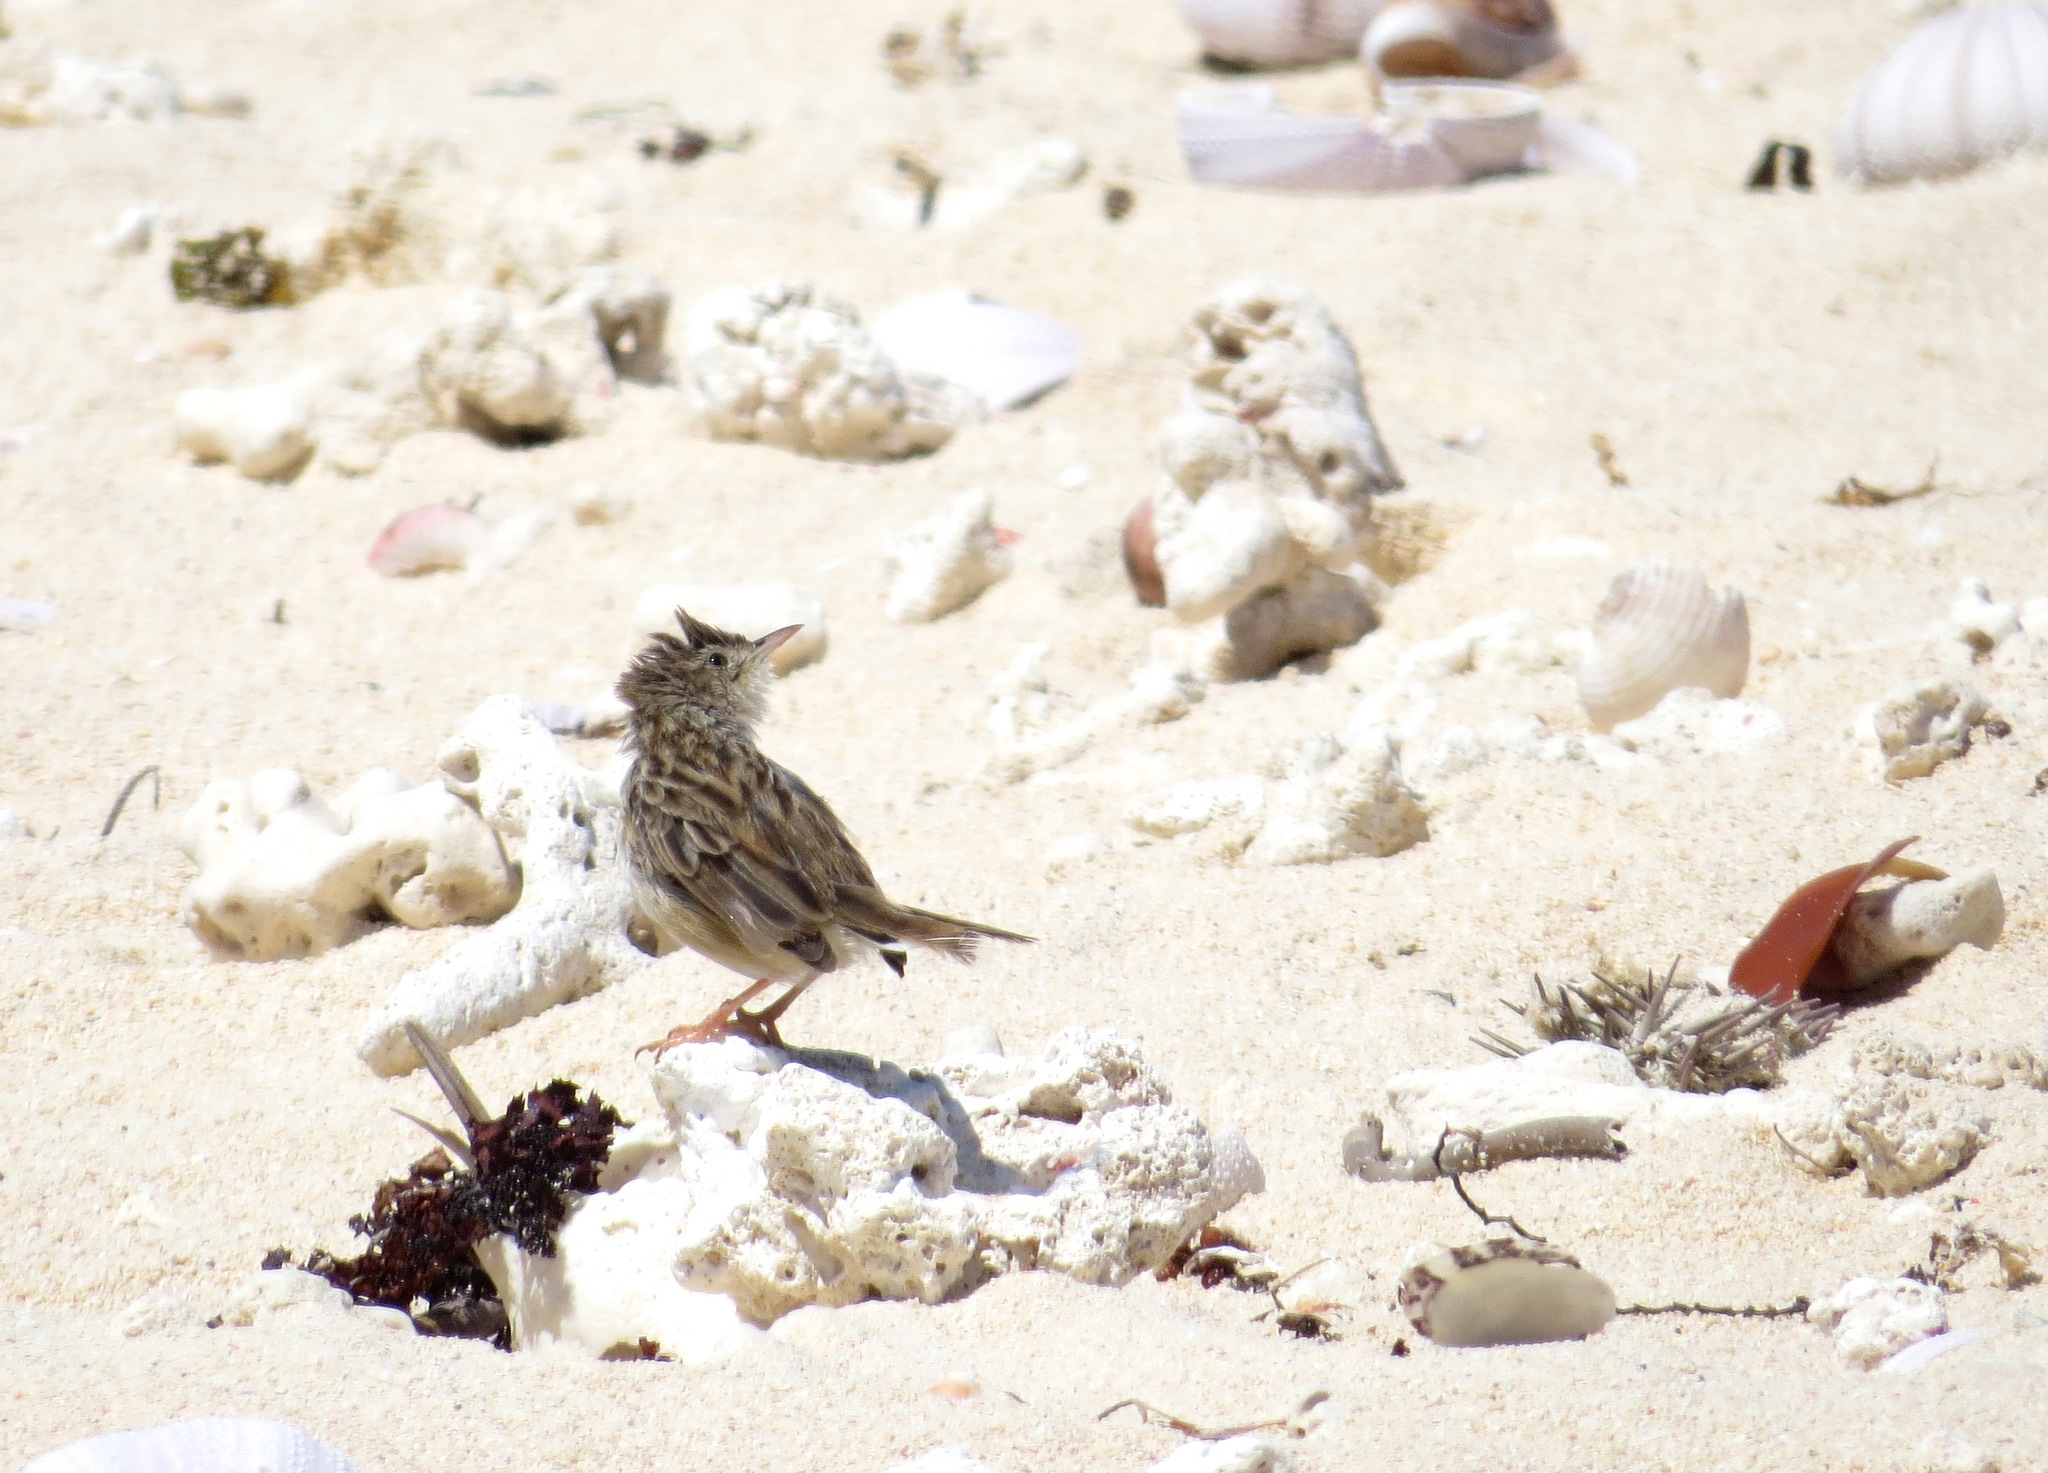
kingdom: Animalia
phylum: Chordata
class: Aves
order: Passeriformes
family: Cisticolidae
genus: Cisticola
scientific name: Cisticola cherina
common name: Madagascar cisticola
